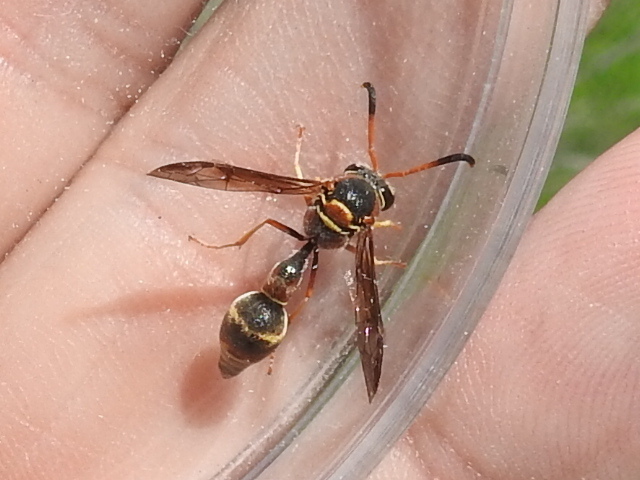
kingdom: Animalia
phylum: Arthropoda
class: Insecta
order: Hymenoptera
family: Vespidae
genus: Eumenes
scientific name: Eumenes smithii
